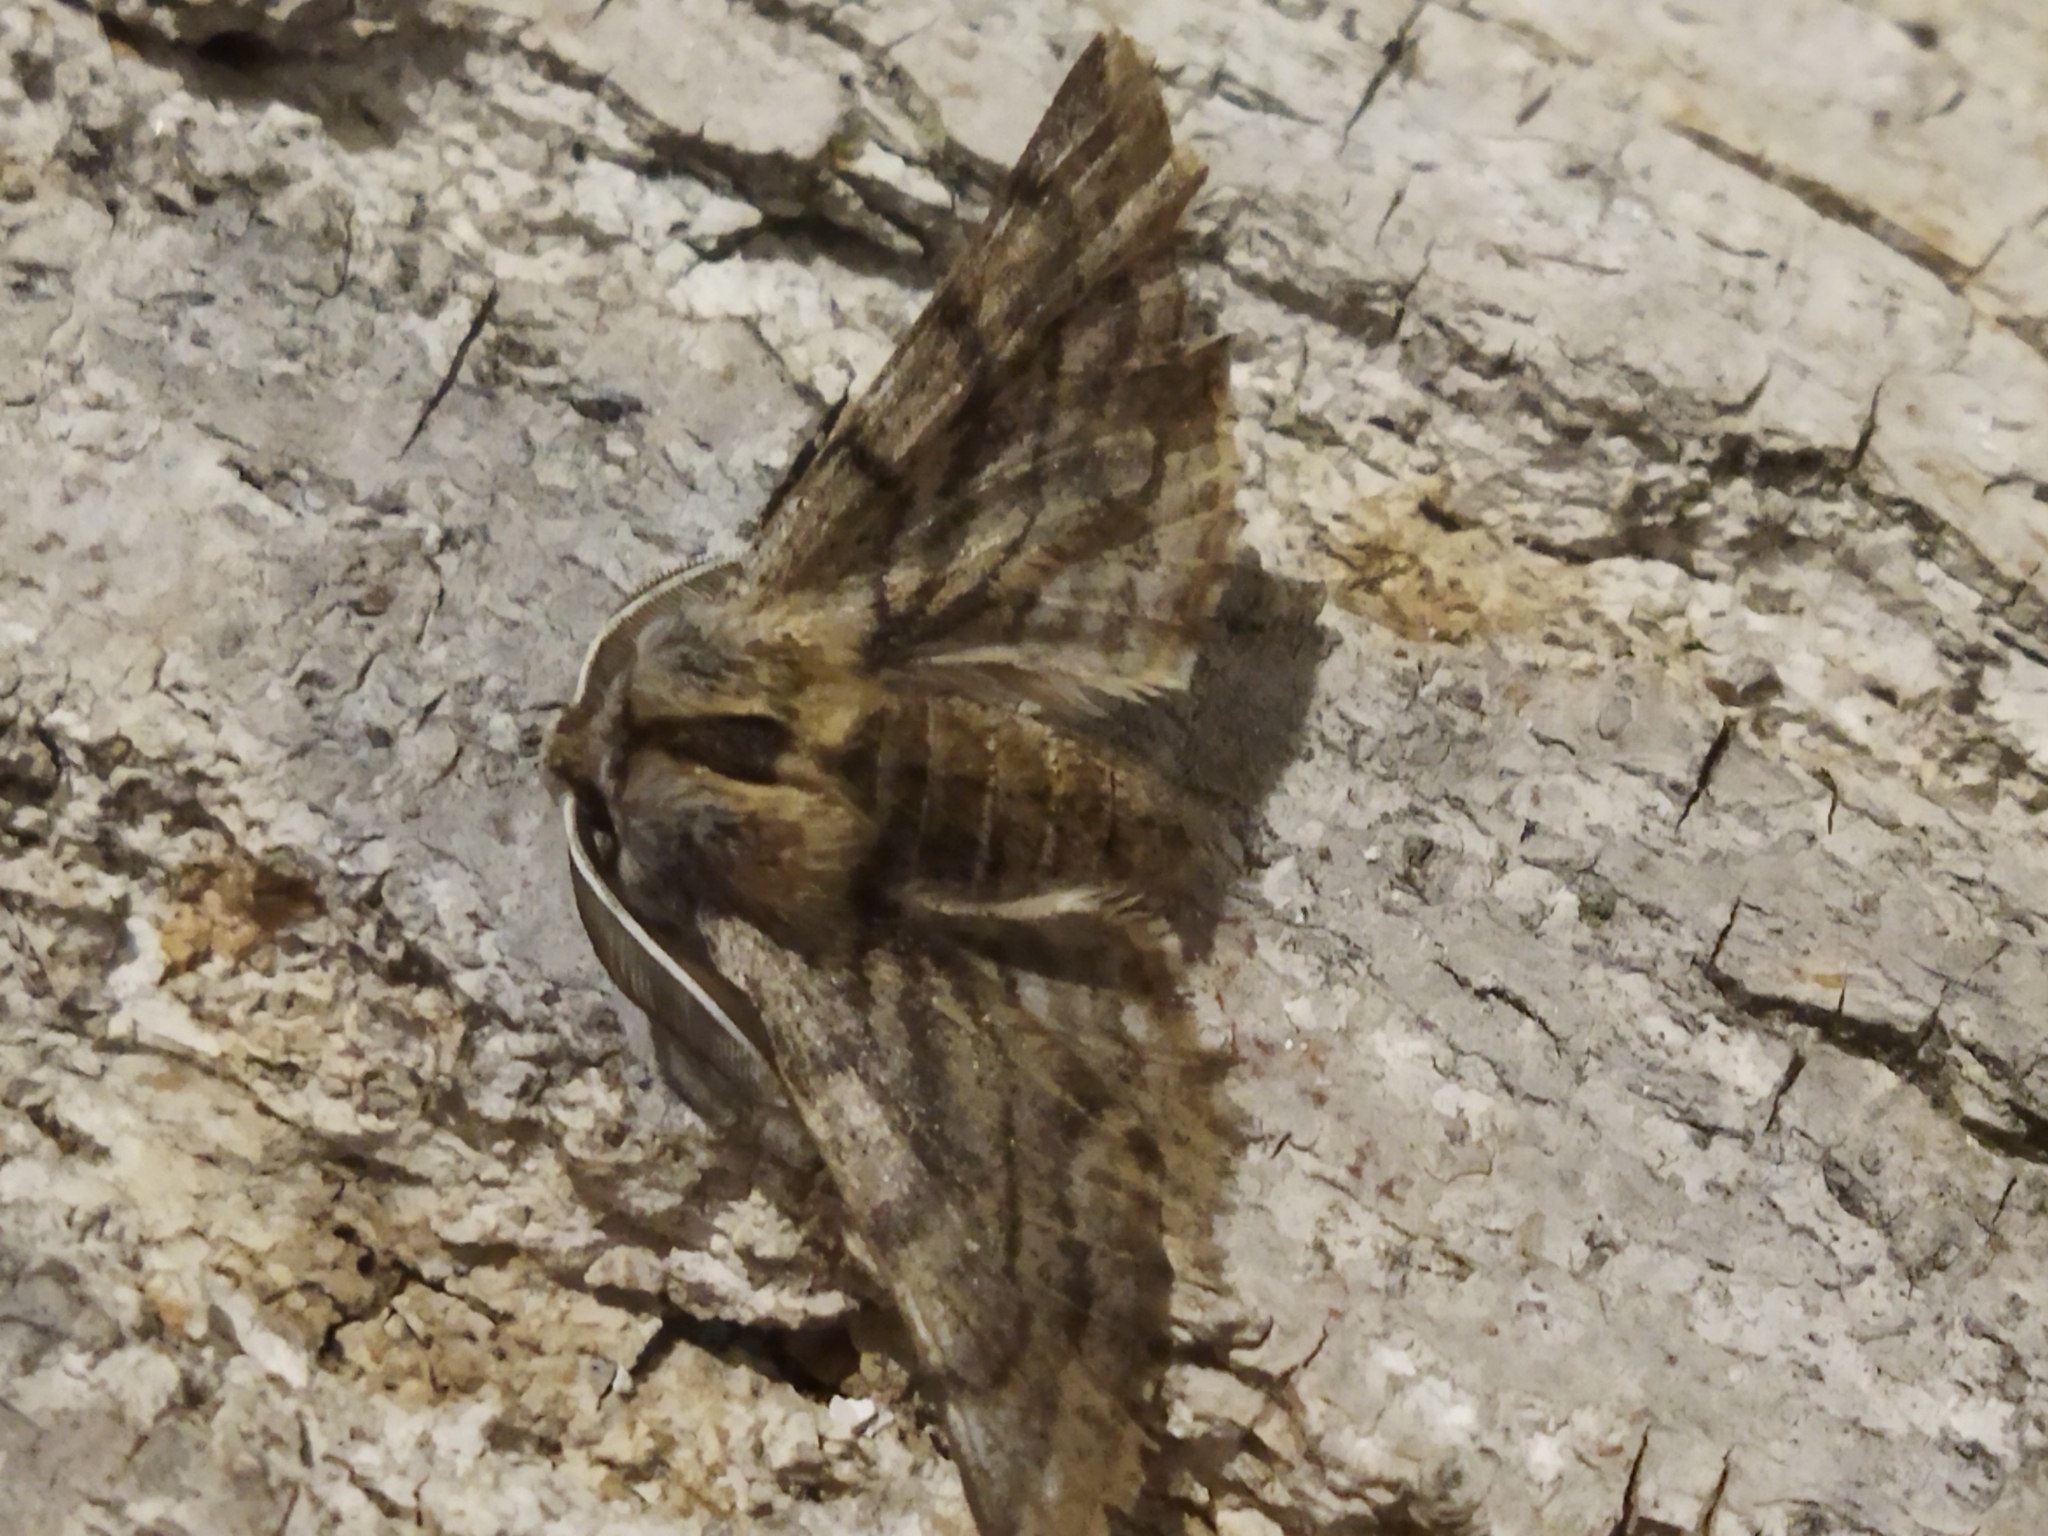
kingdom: Animalia
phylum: Arthropoda
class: Insecta
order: Lepidoptera
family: Geometridae
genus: Apochima
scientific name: Apochima flabellaria
